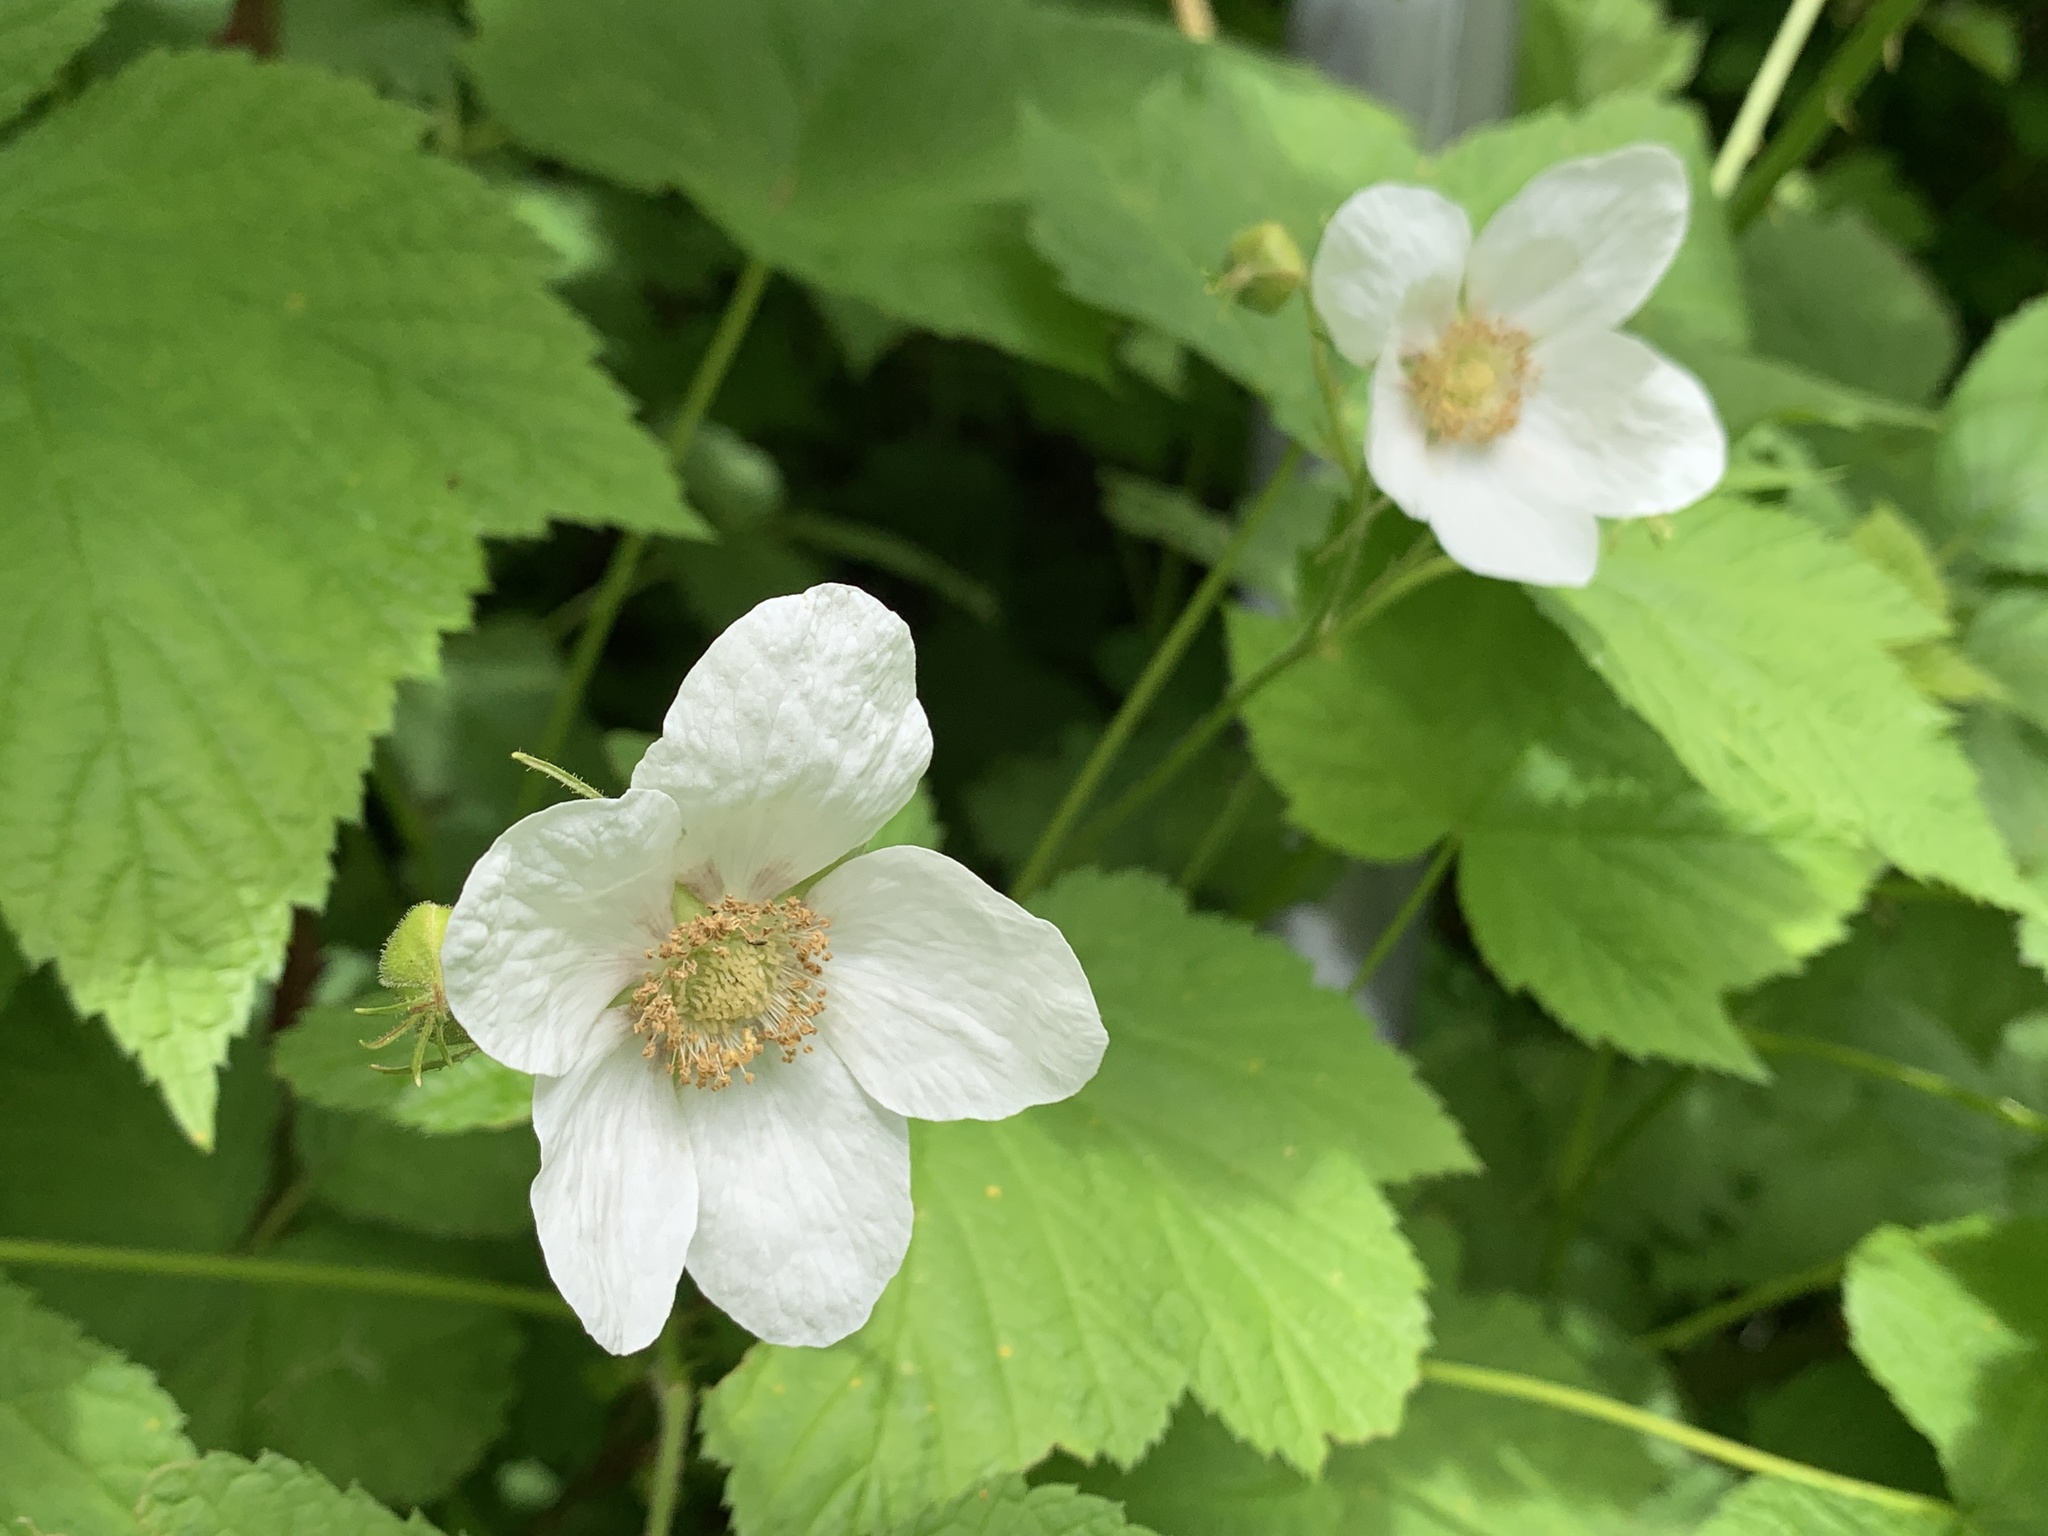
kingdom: Plantae
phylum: Tracheophyta
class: Magnoliopsida
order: Rosales
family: Rosaceae
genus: Rubus
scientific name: Rubus parviflorus
